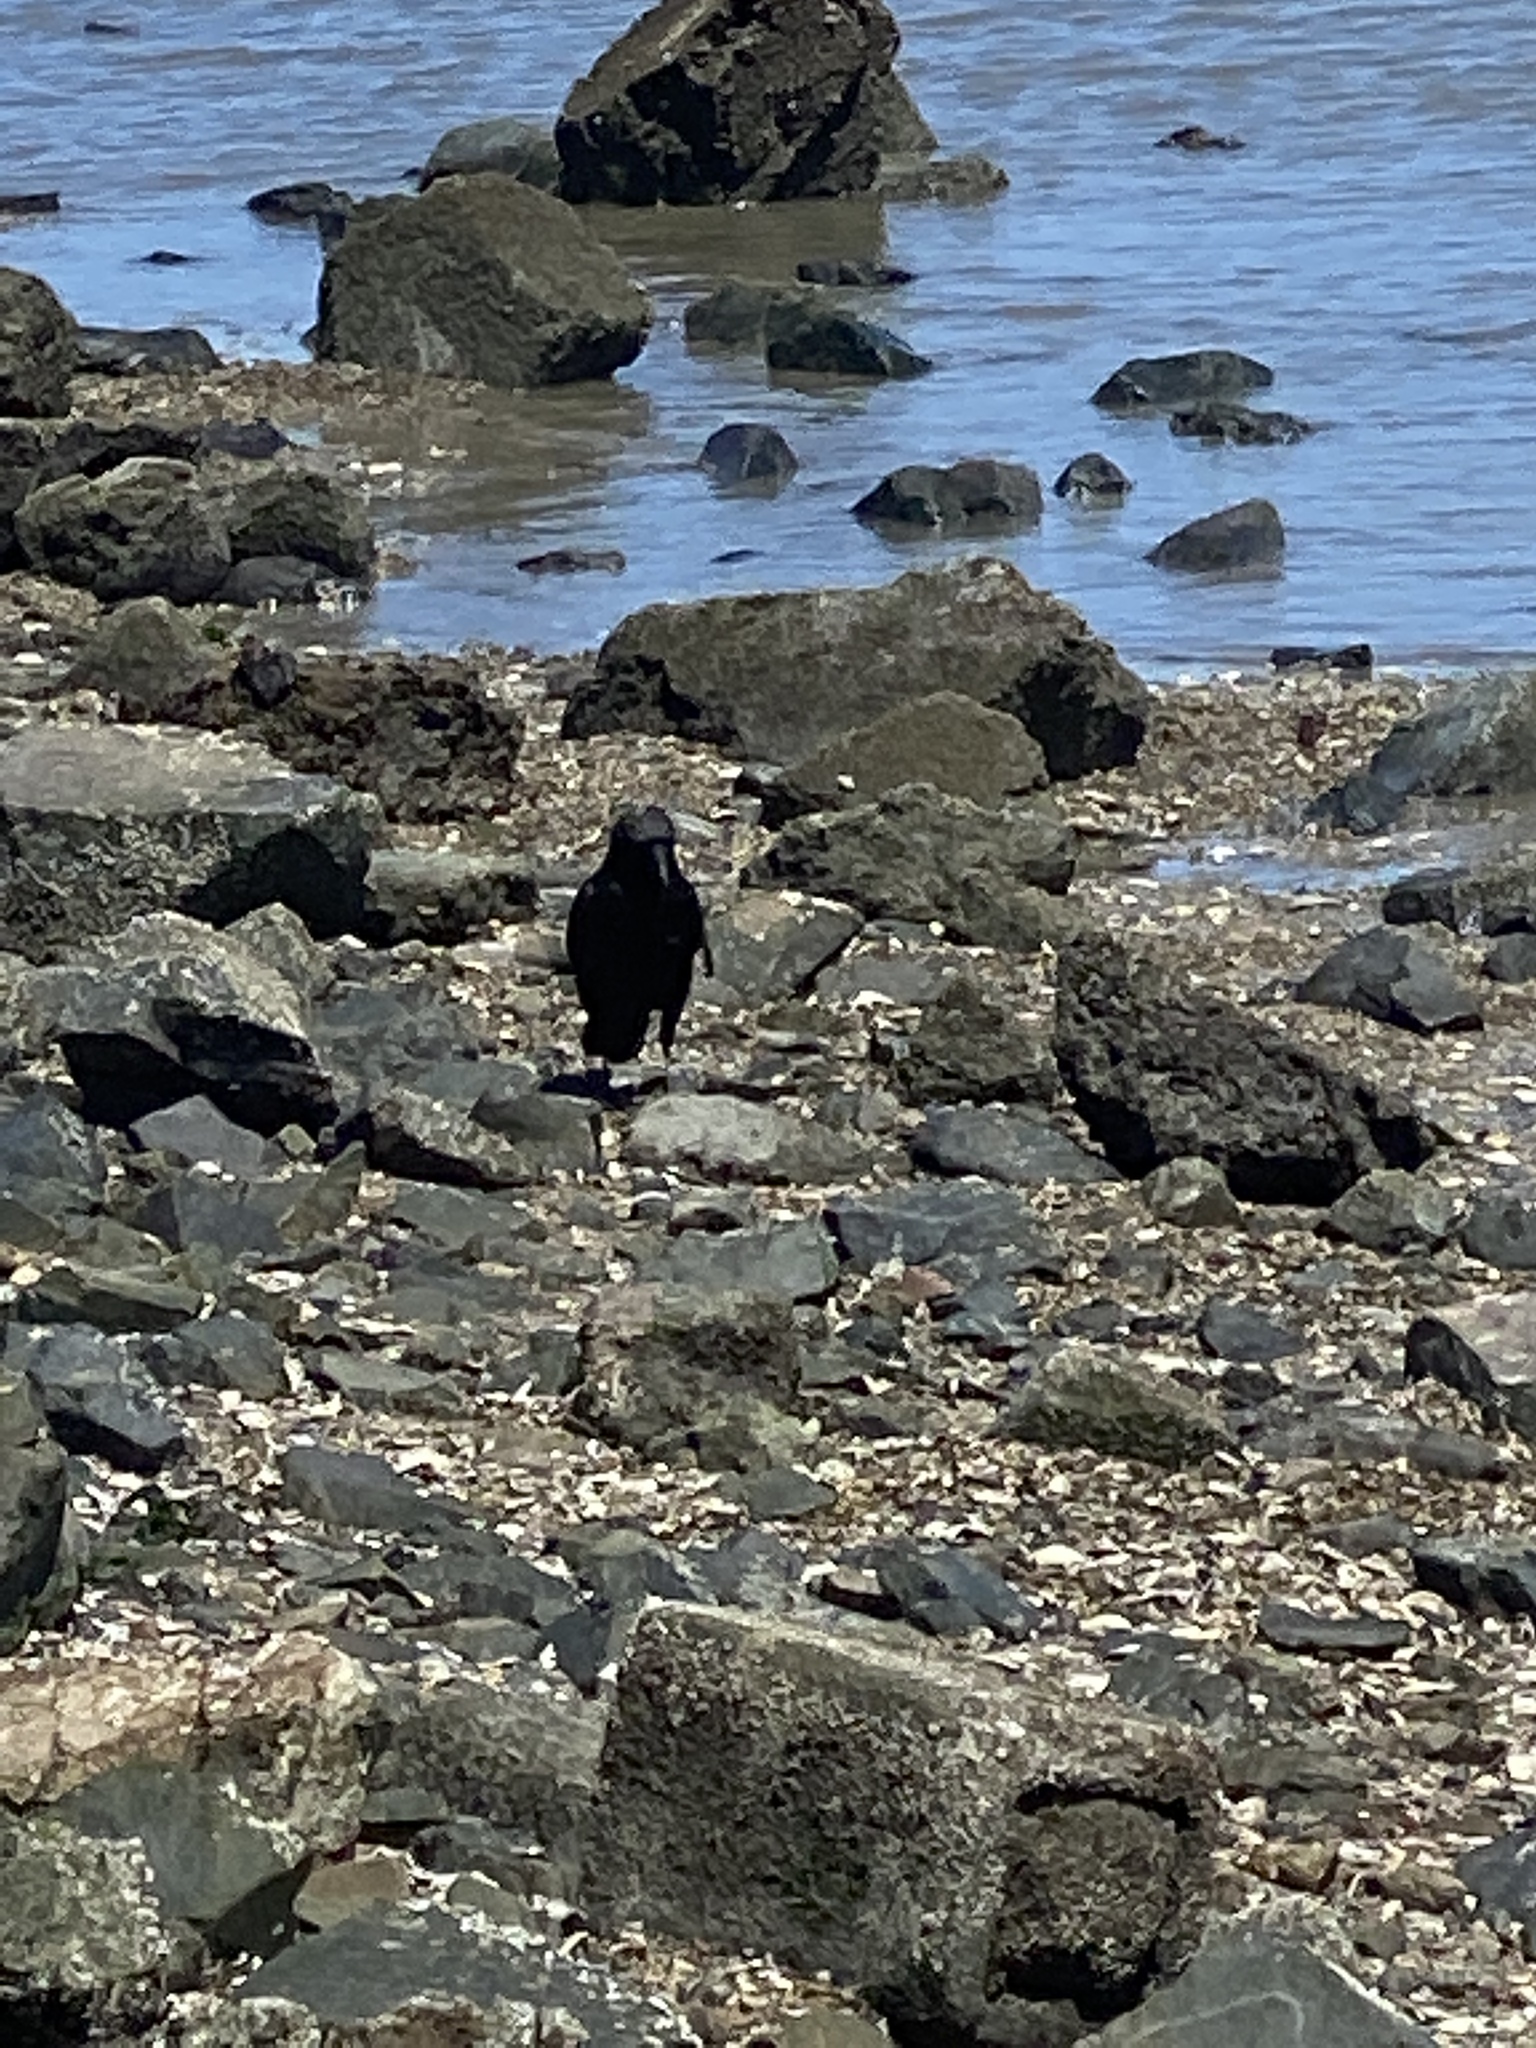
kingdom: Animalia
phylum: Chordata
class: Aves
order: Passeriformes
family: Corvidae
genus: Corvus
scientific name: Corvus brachyrhynchos
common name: American crow
